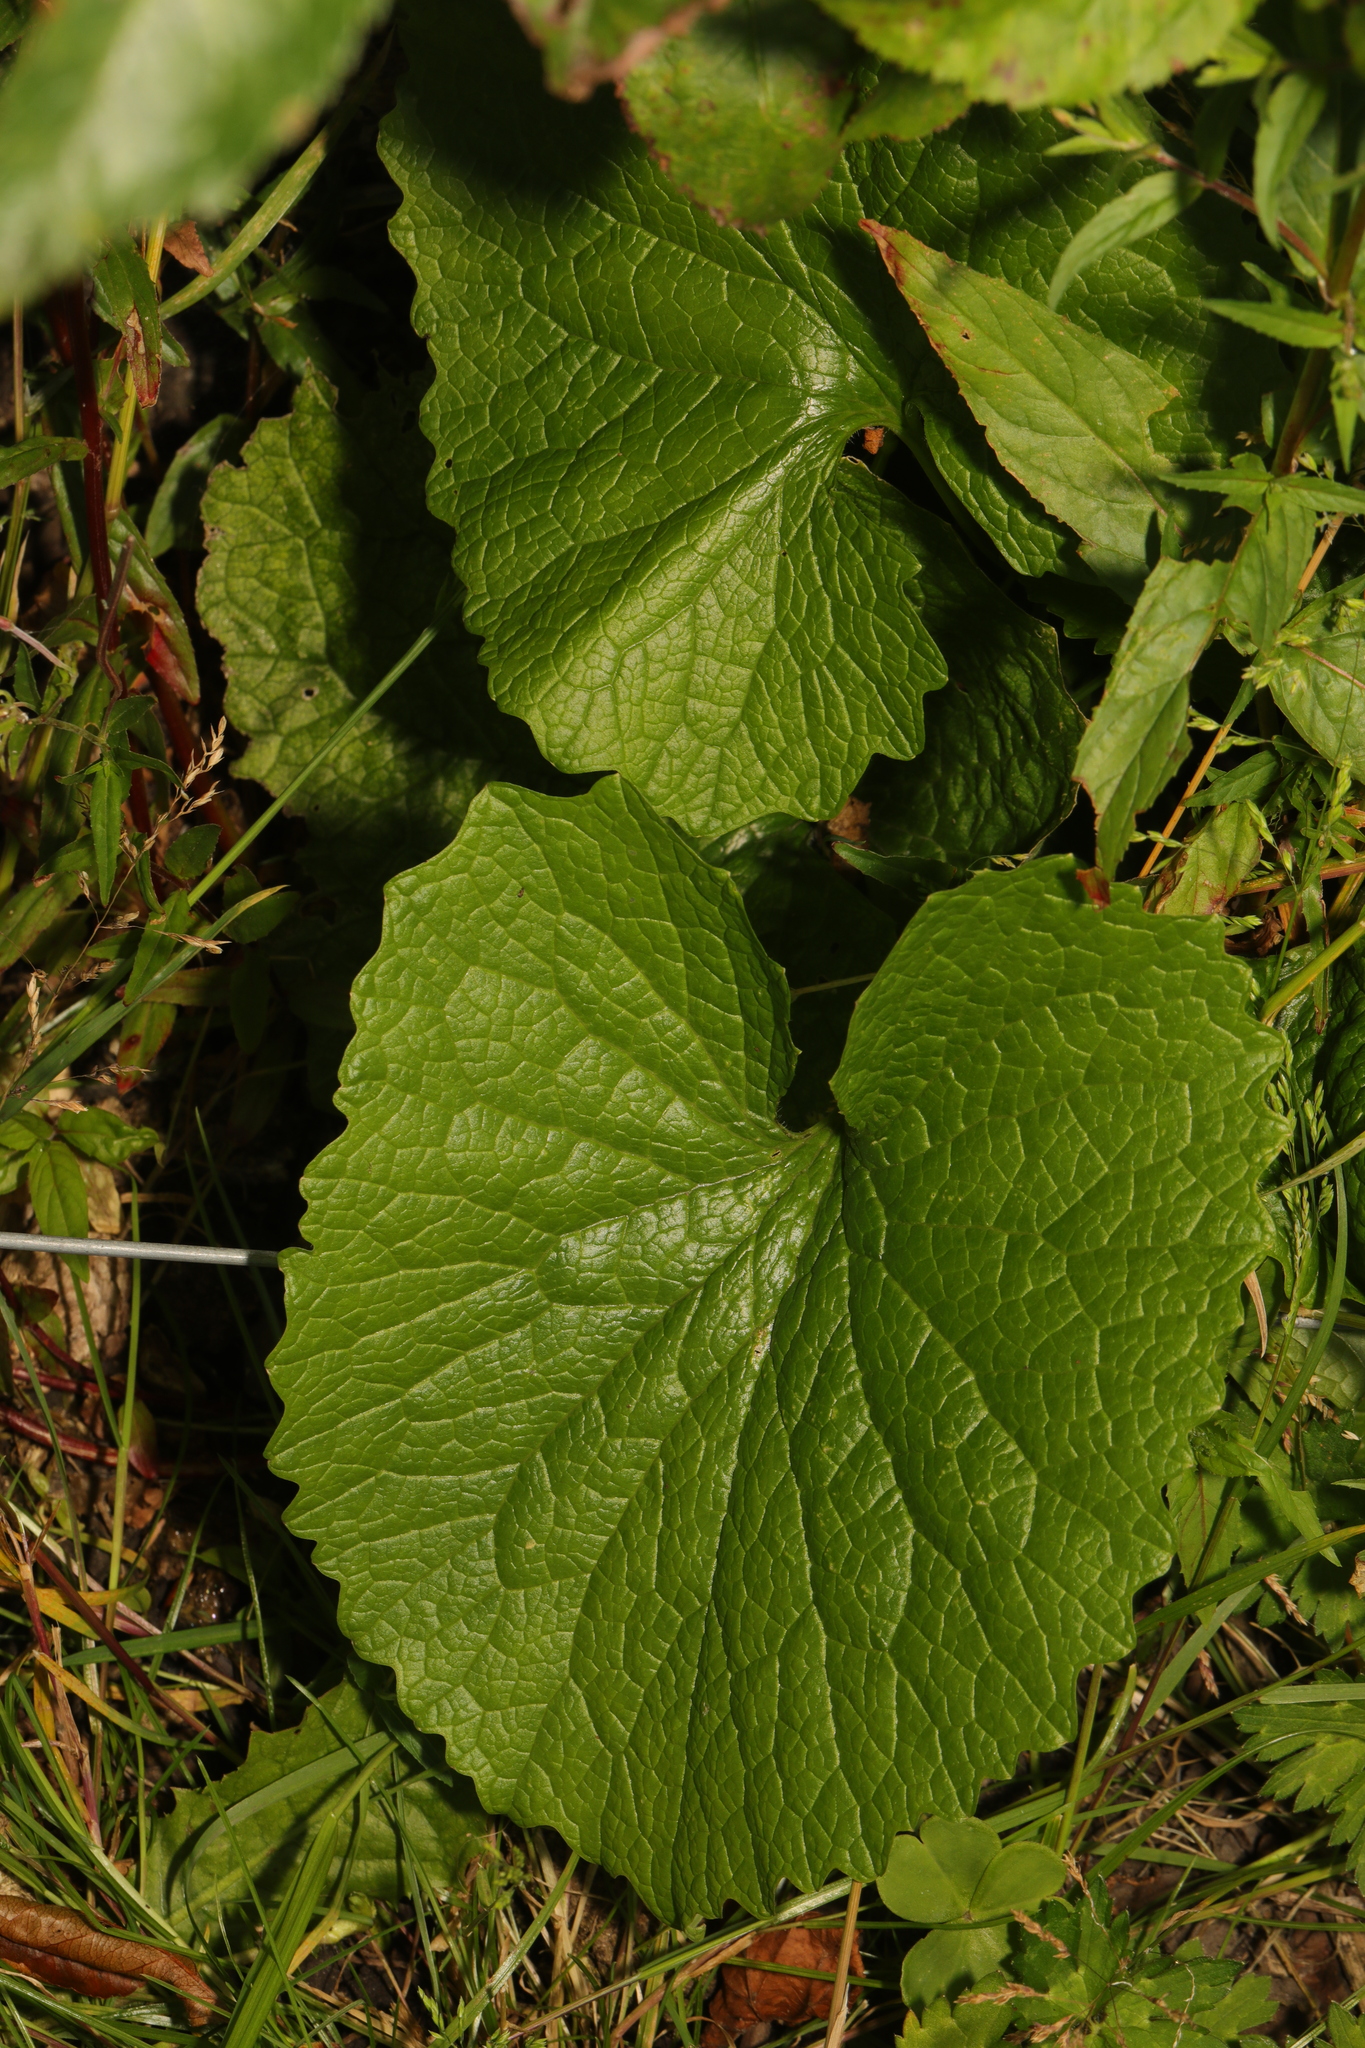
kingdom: Plantae
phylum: Tracheophyta
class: Magnoliopsida
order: Brassicales
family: Brassicaceae
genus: Alliaria
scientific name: Alliaria petiolata
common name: Garlic mustard
